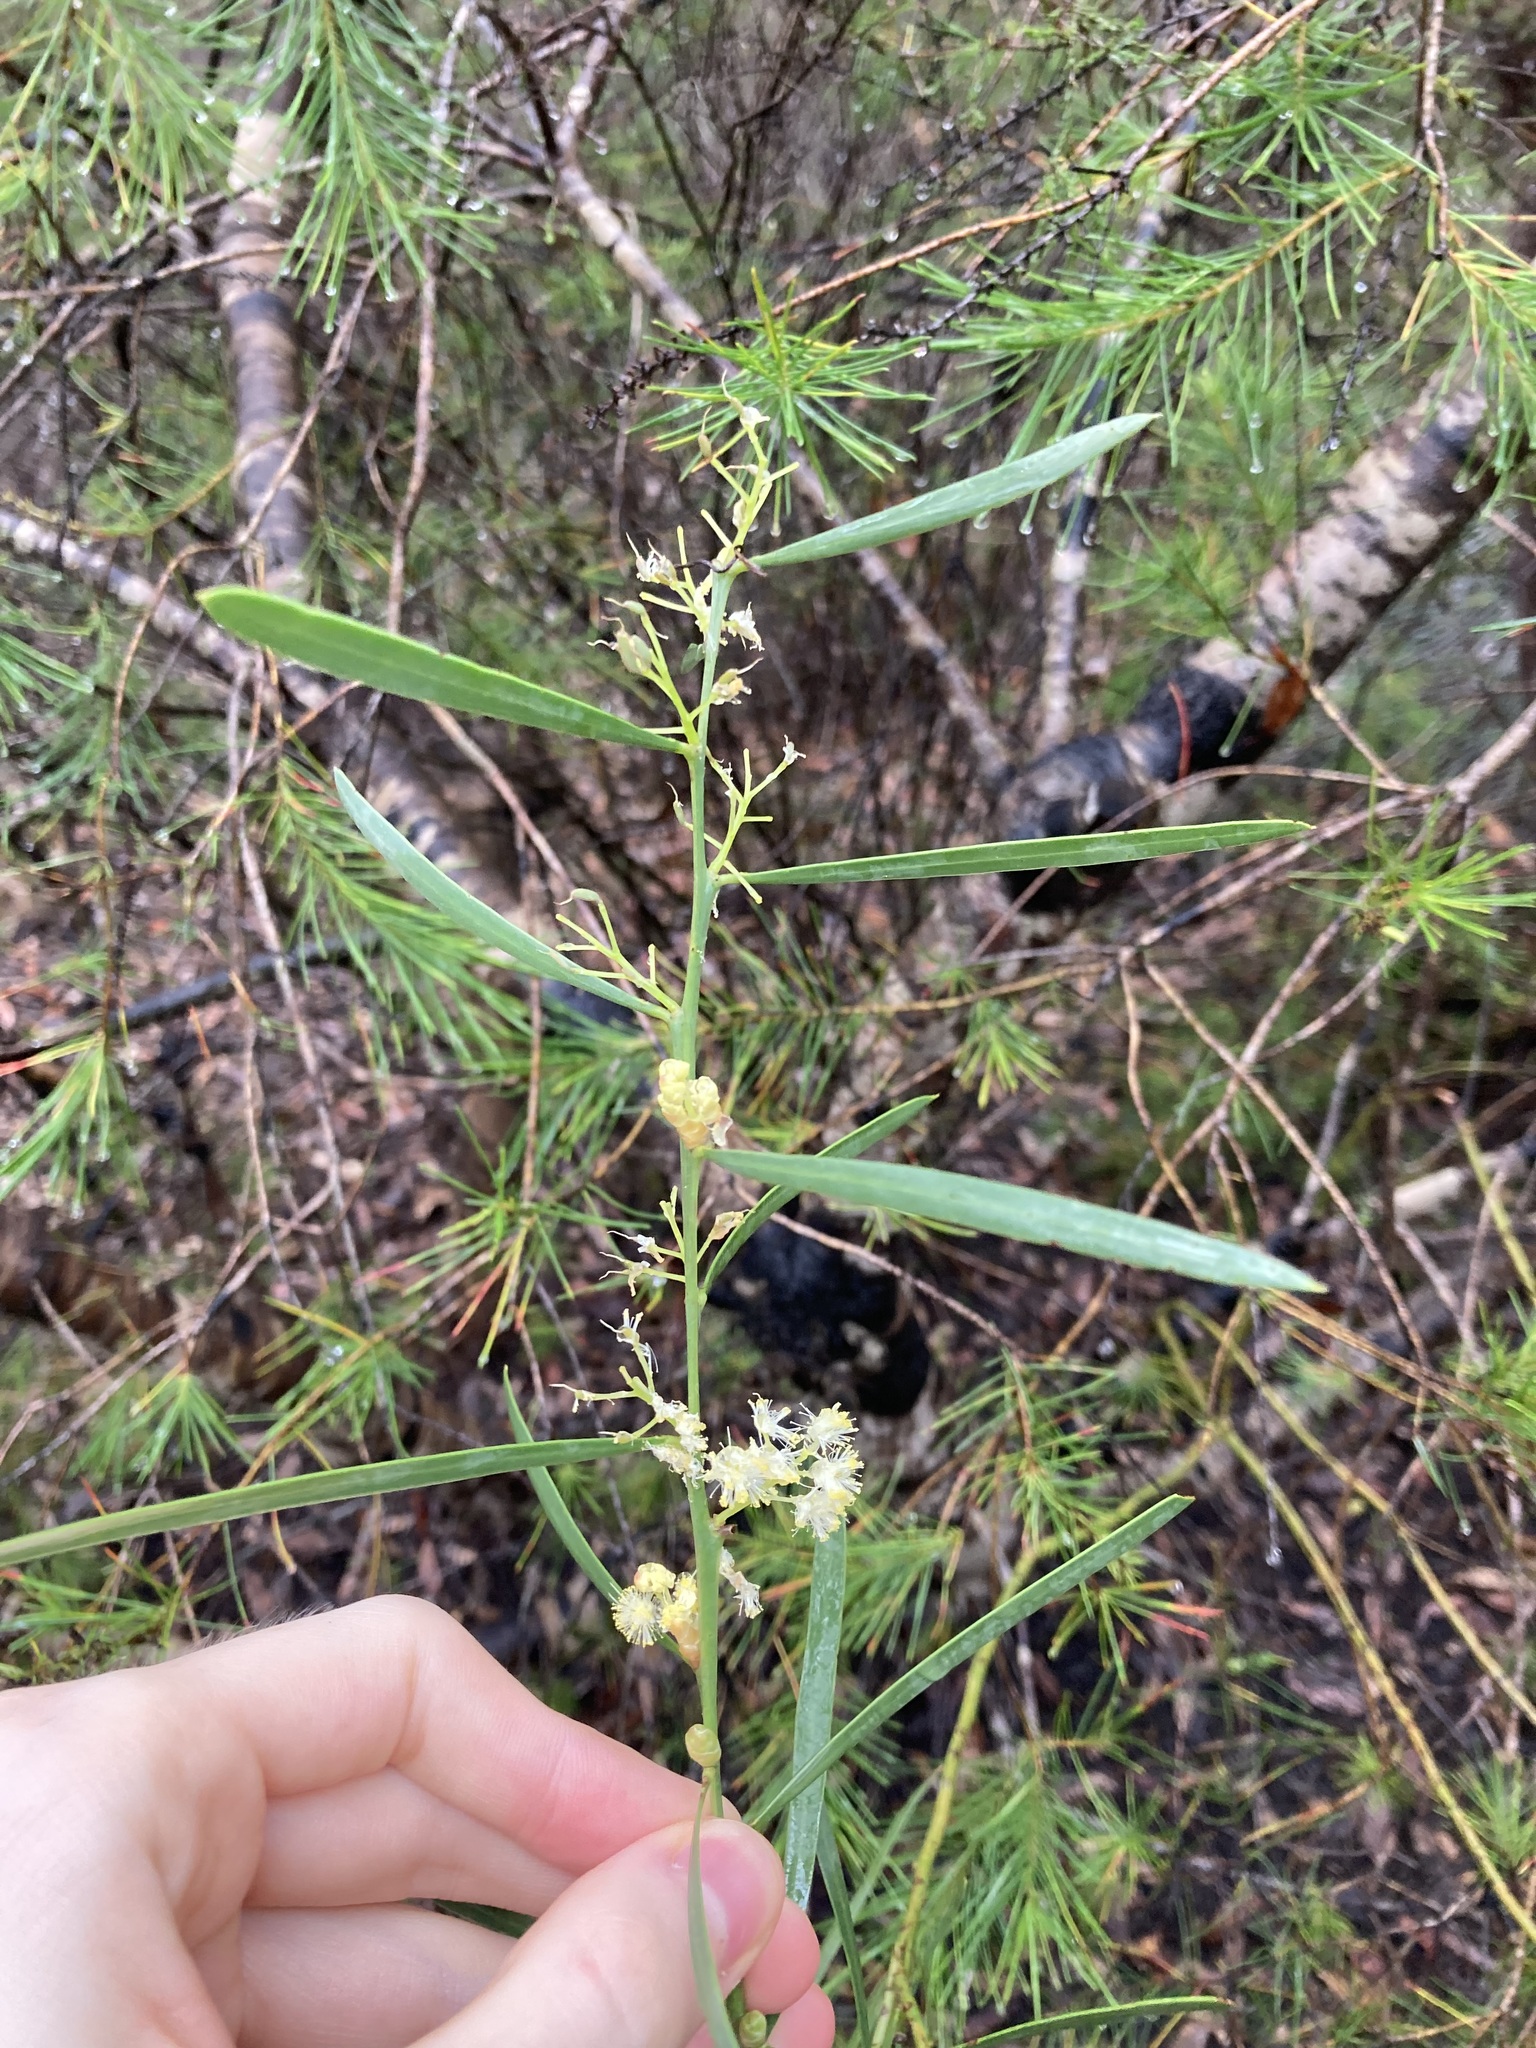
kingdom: Plantae
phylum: Tracheophyta
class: Magnoliopsida
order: Fabales
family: Fabaceae
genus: Acacia
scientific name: Acacia suaveolens
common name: Sweet acacia
